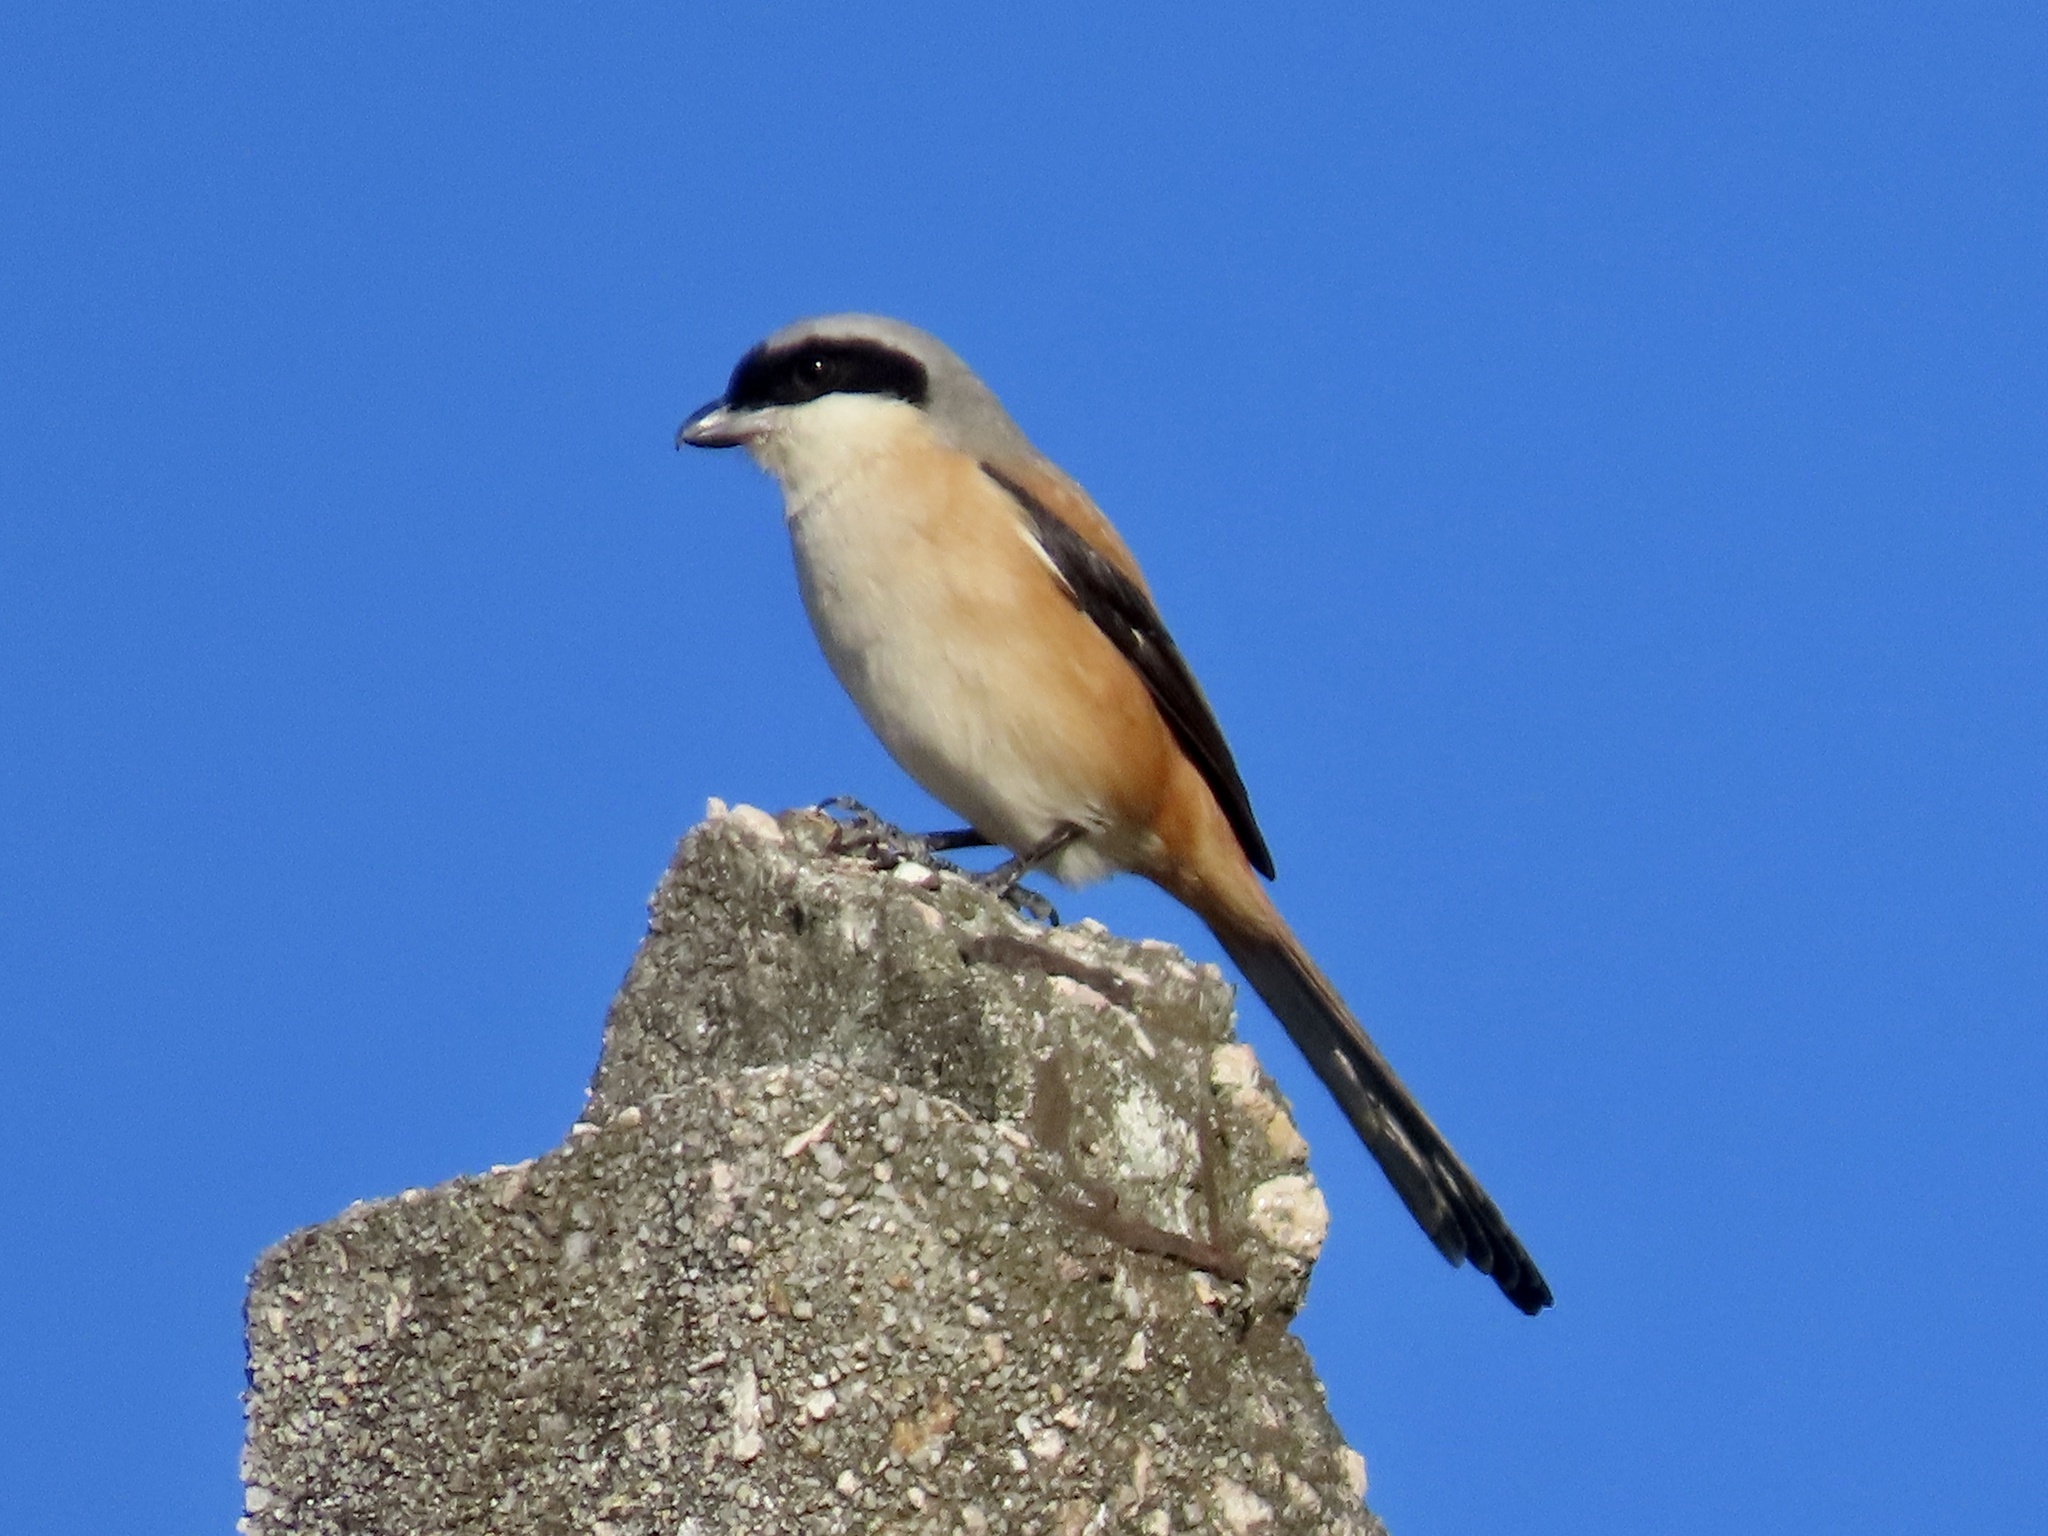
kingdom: Animalia
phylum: Chordata
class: Aves
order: Passeriformes
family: Laniidae
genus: Lanius
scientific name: Lanius schach
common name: Long-tailed shrike
